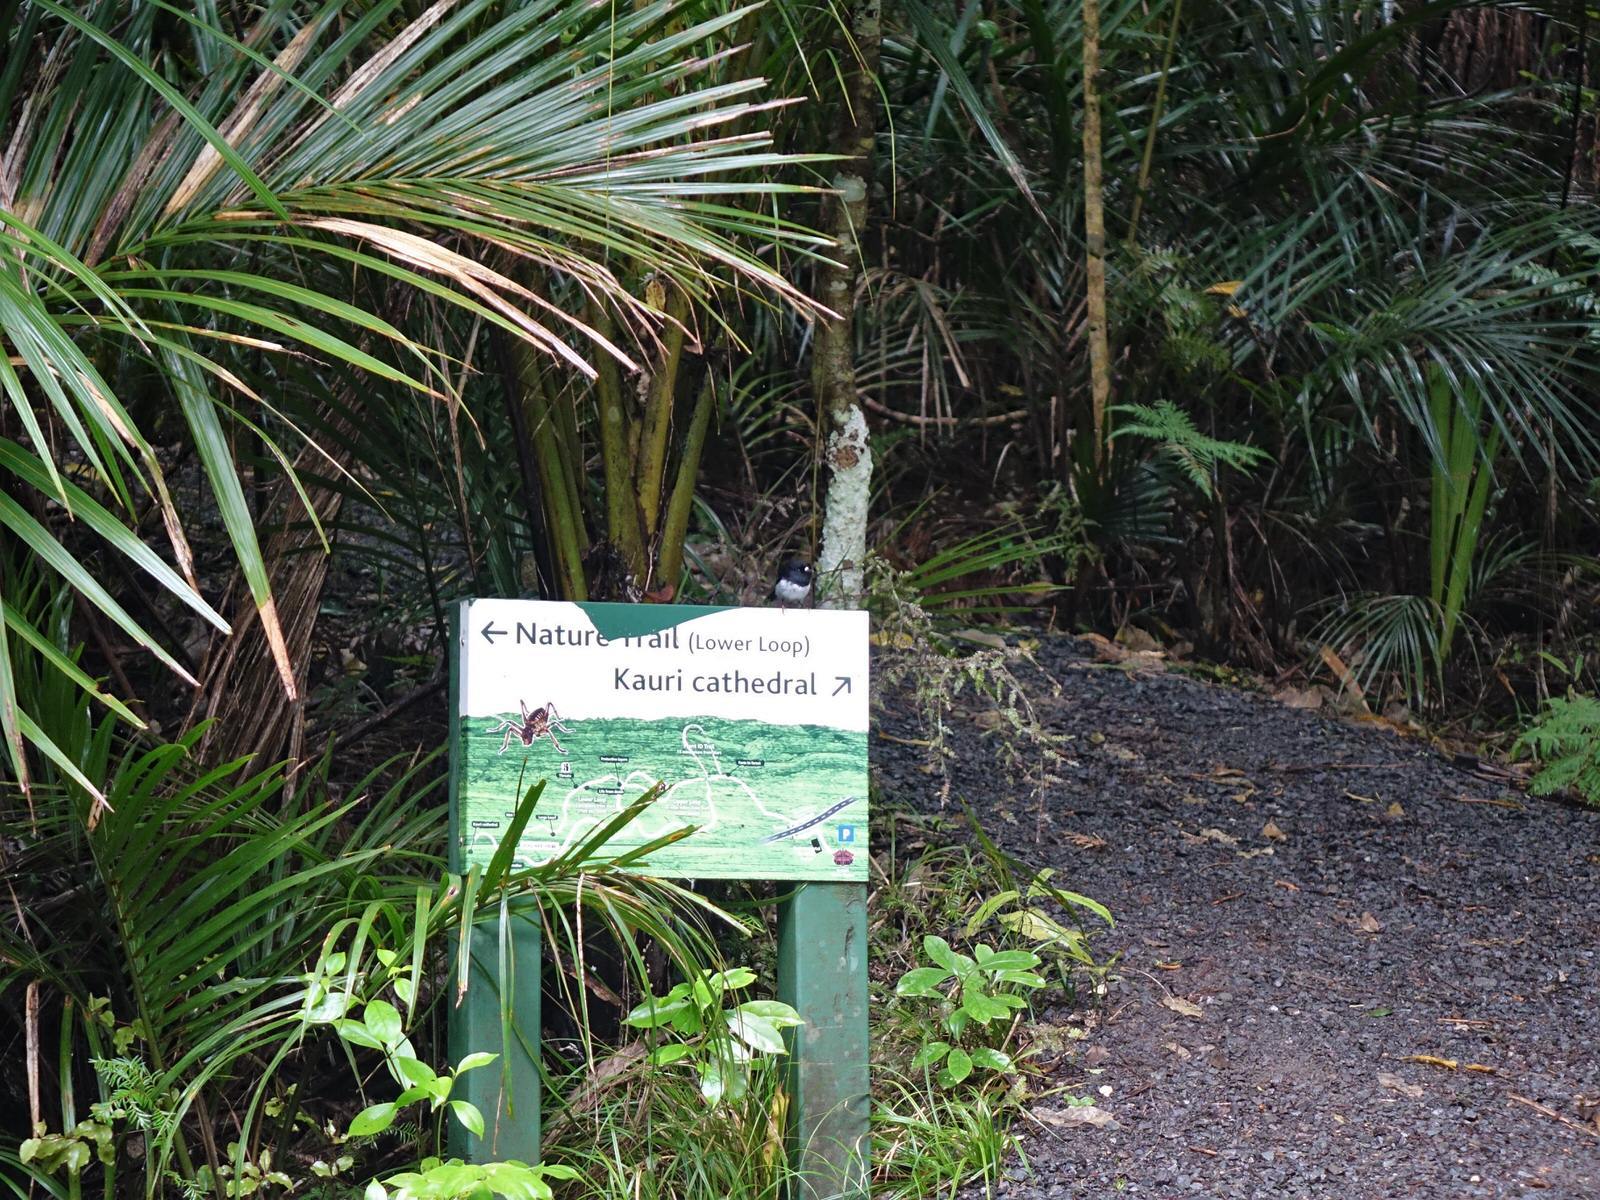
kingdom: Animalia
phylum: Chordata
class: Aves
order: Passeriformes
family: Petroicidae
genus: Petroica
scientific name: Petroica macrocephala
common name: Tomtit
